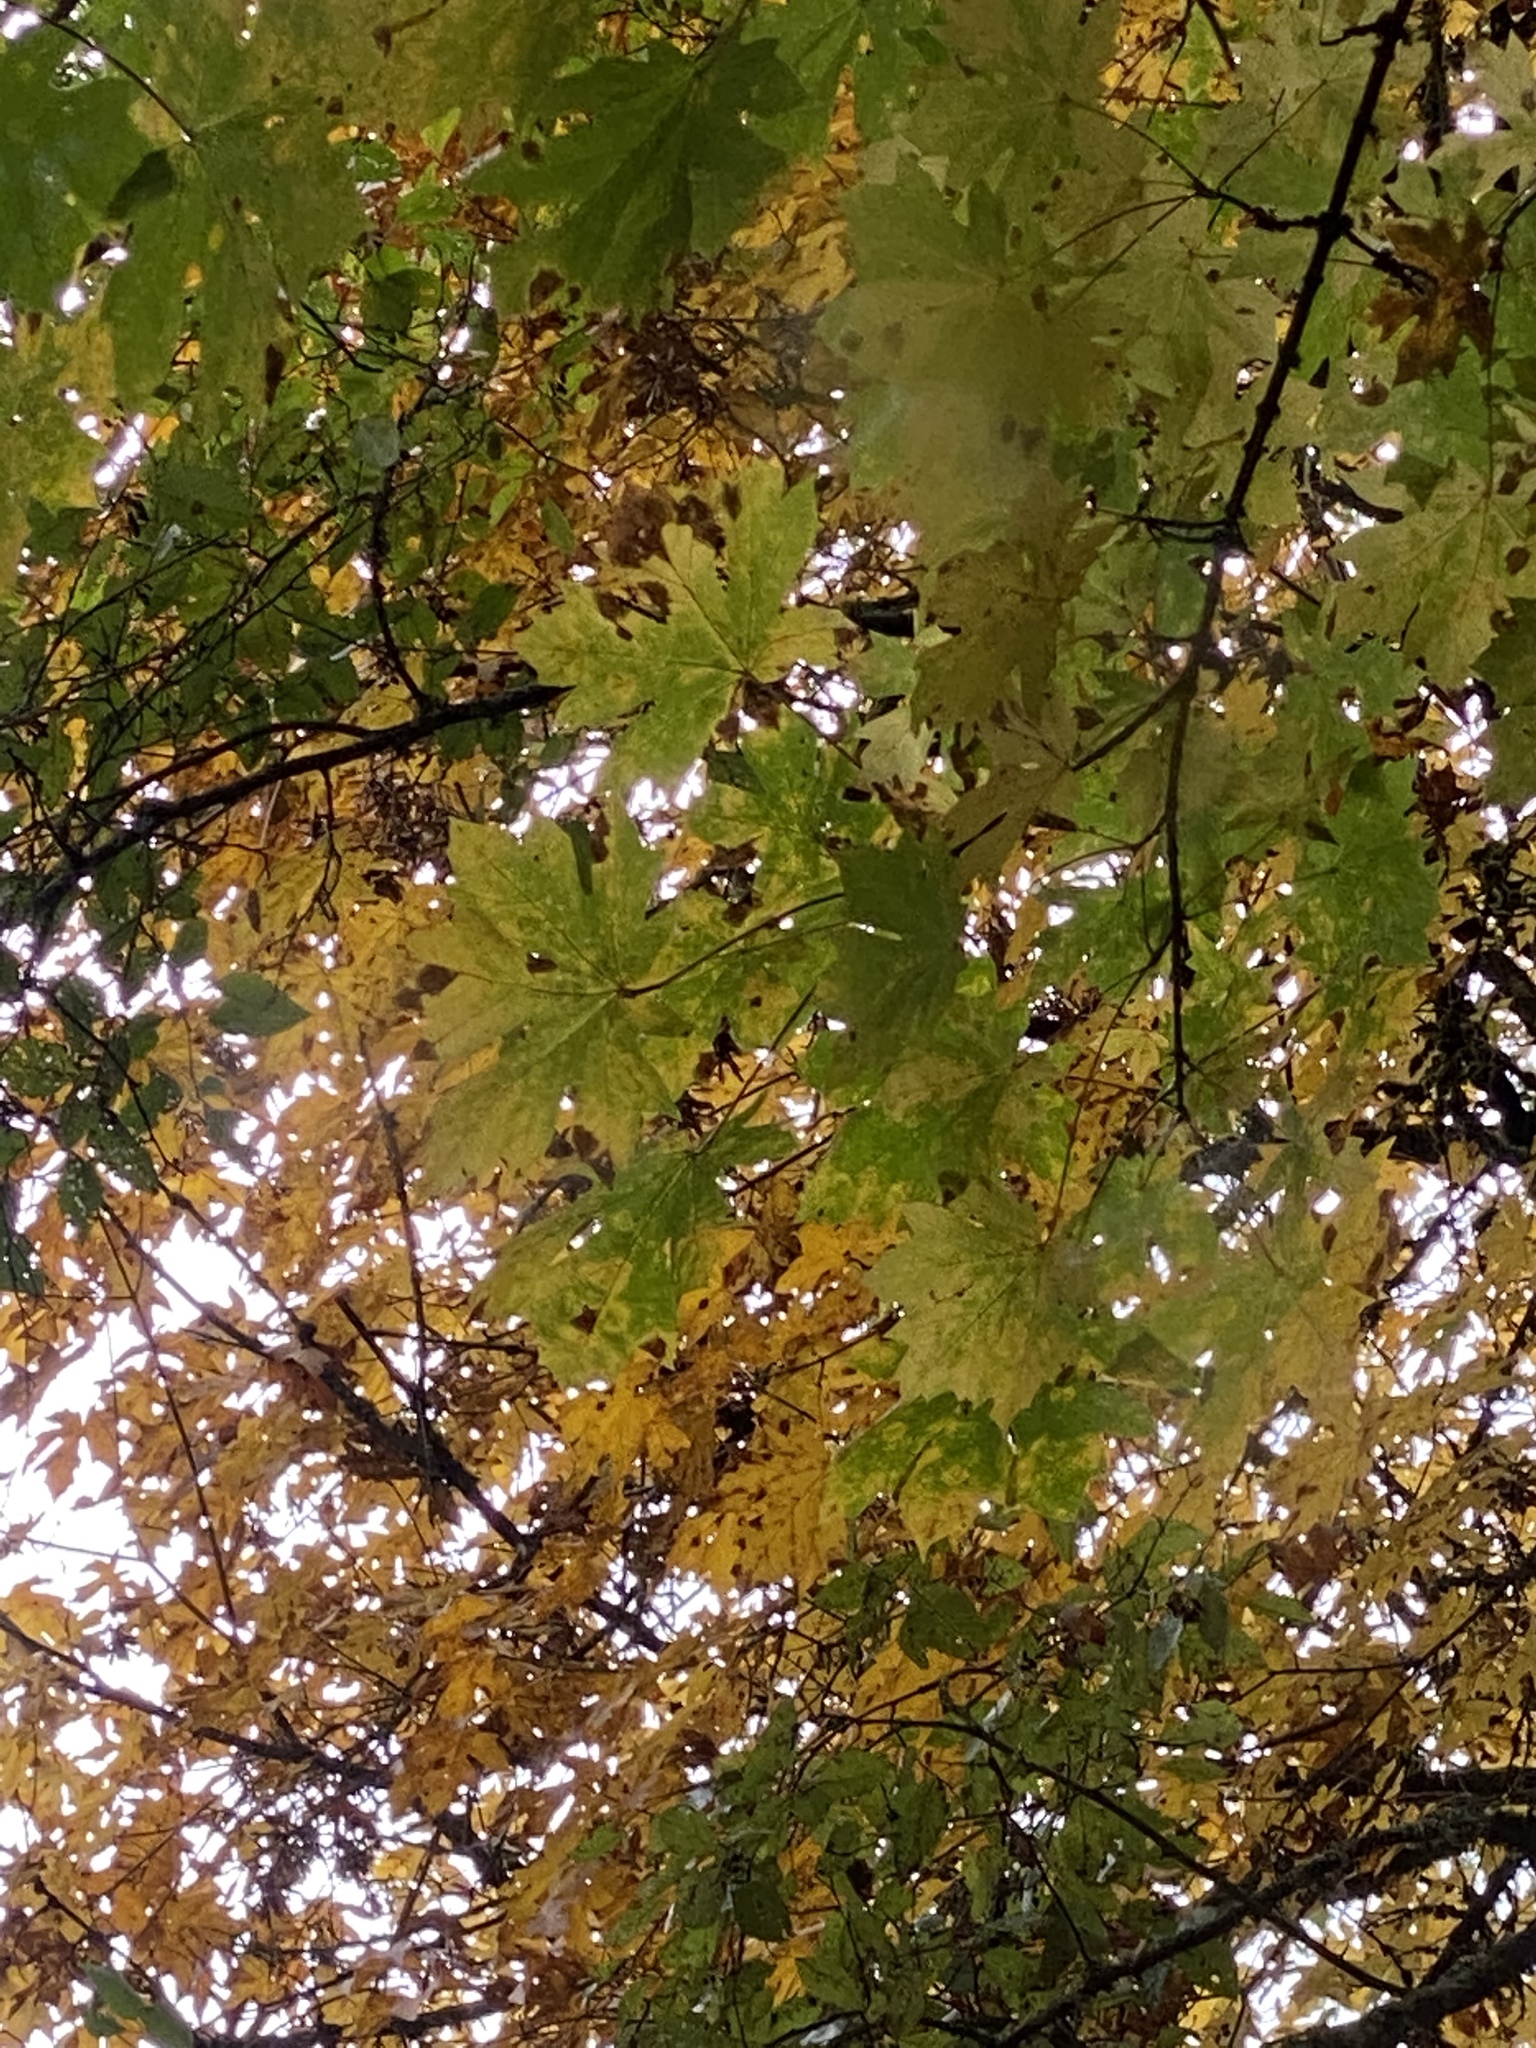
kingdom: Plantae
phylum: Tracheophyta
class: Magnoliopsida
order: Sapindales
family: Sapindaceae
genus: Acer
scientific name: Acer macrophyllum
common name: Oregon maple
